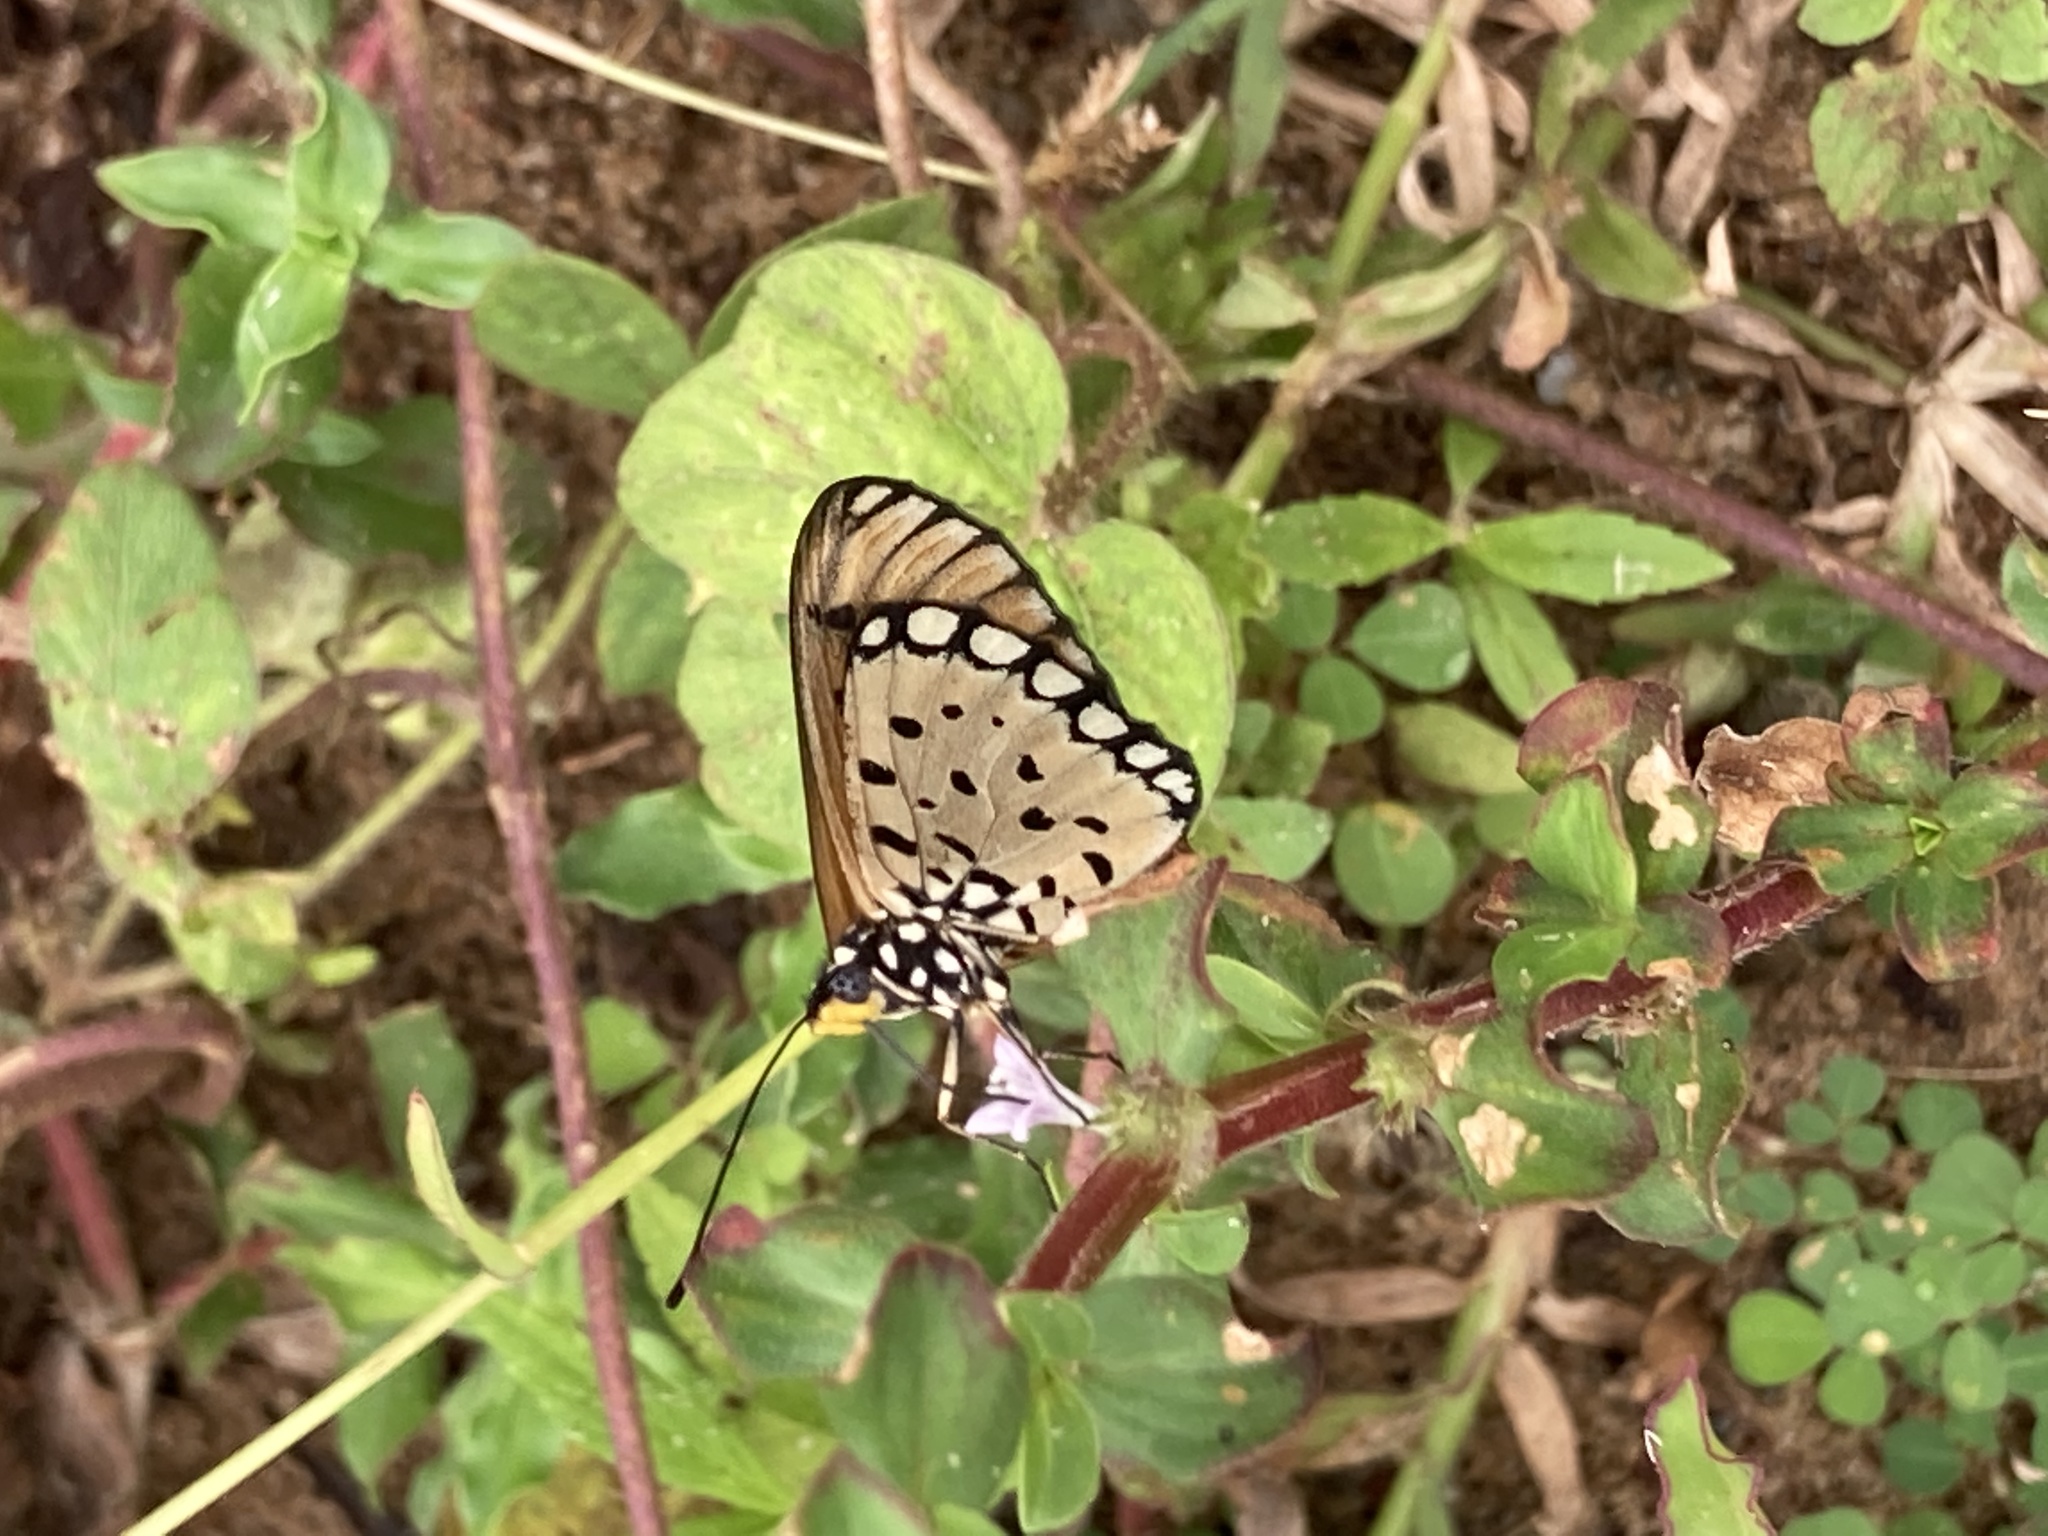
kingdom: Animalia
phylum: Arthropoda
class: Insecta
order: Lepidoptera
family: Nymphalidae
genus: Acraea
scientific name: Acraea terpsicore
